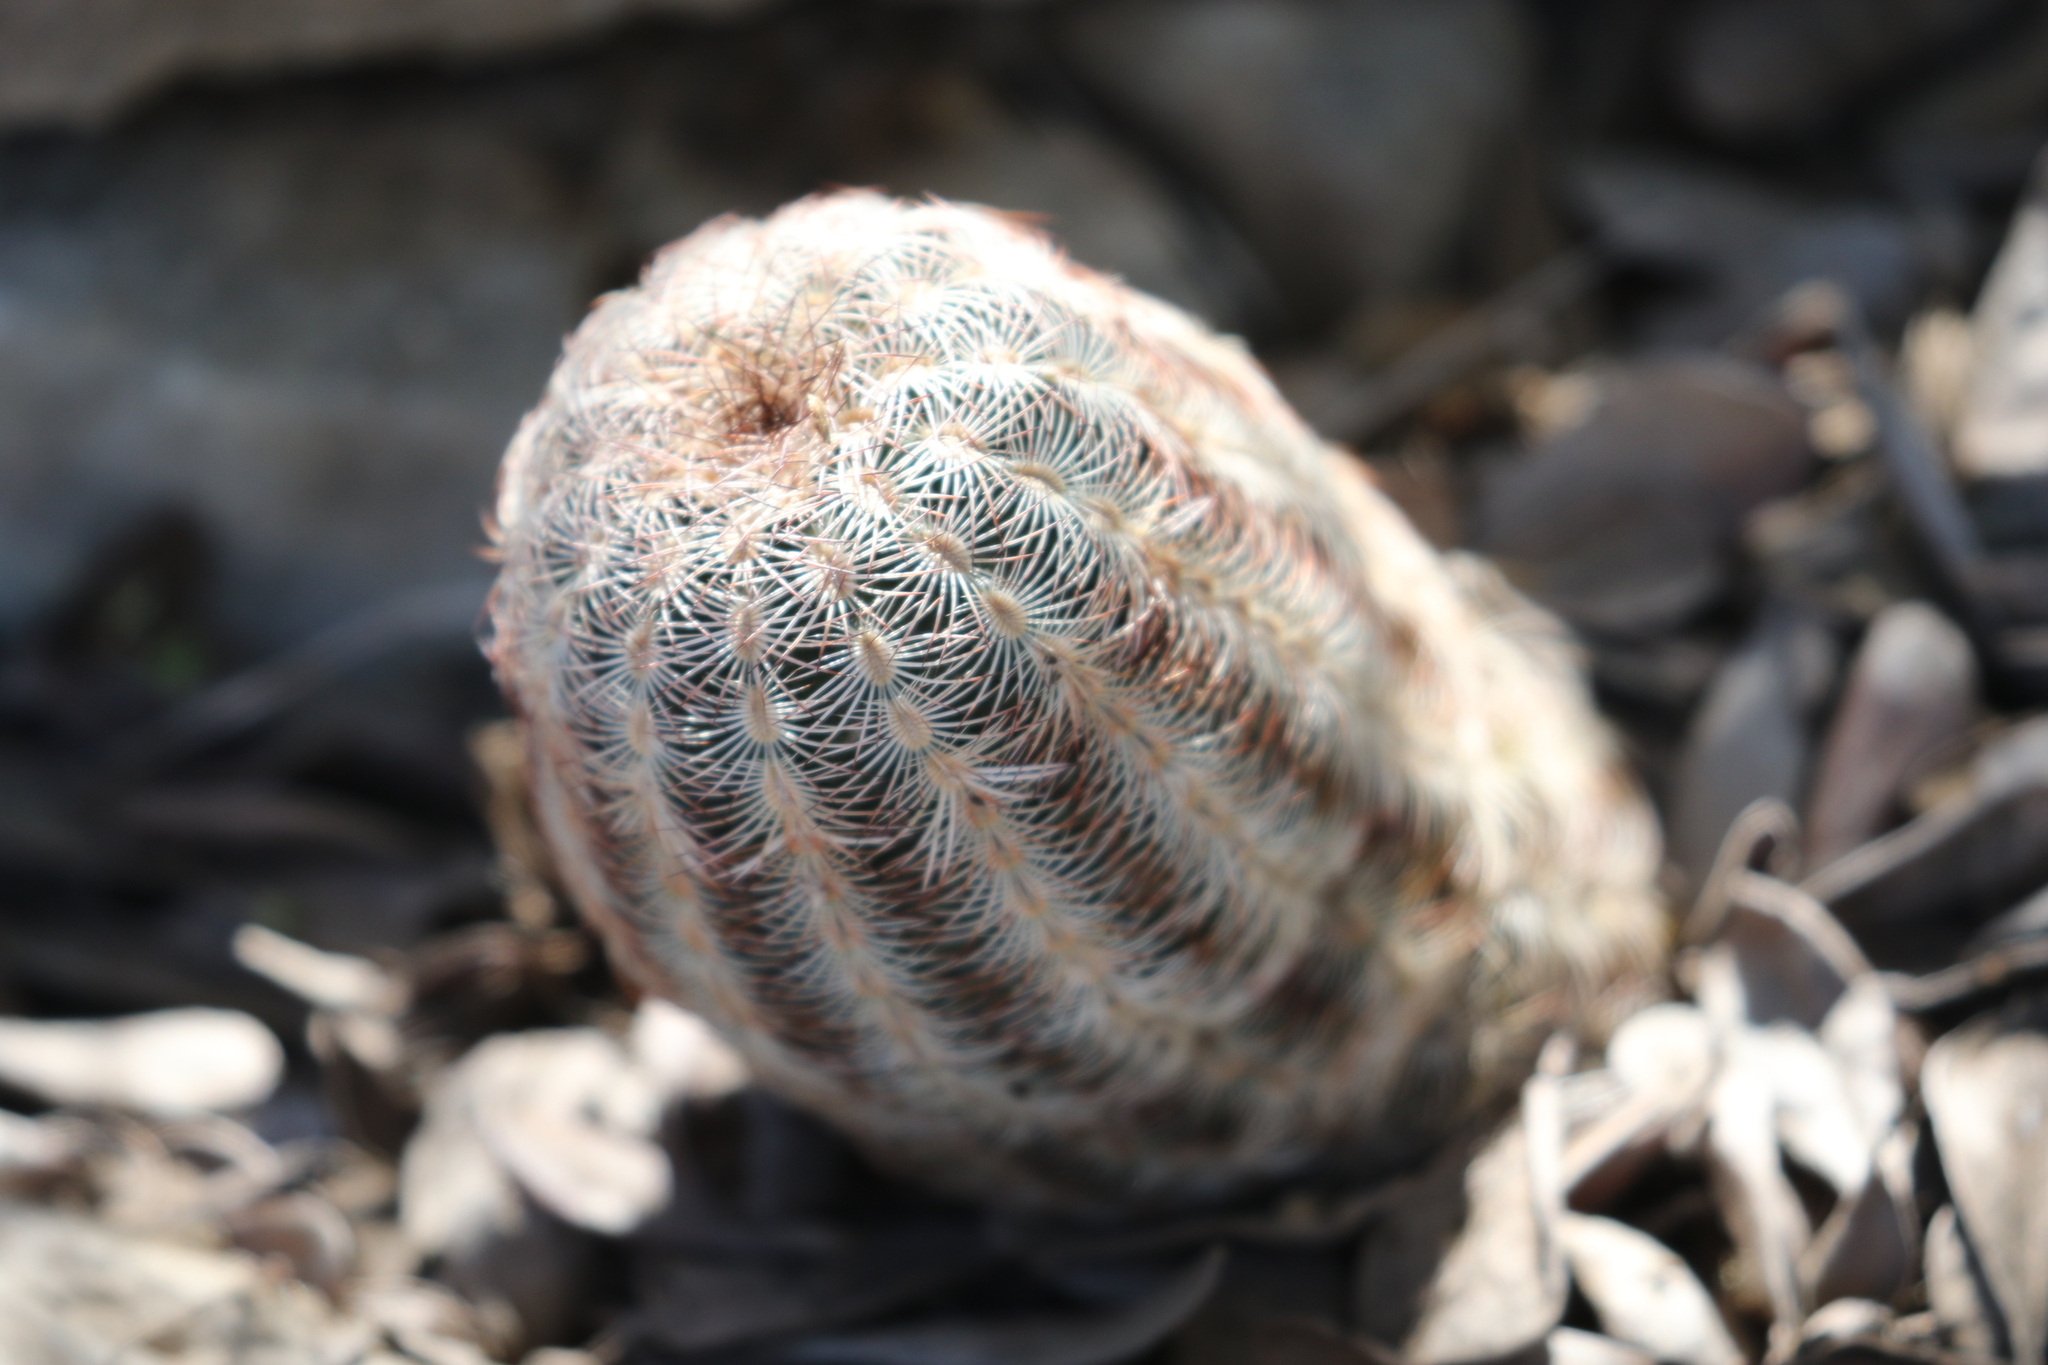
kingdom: Plantae
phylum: Tracheophyta
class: Magnoliopsida
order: Caryophyllales
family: Cactaceae
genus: Echinocereus
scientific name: Echinocereus reichenbachii
